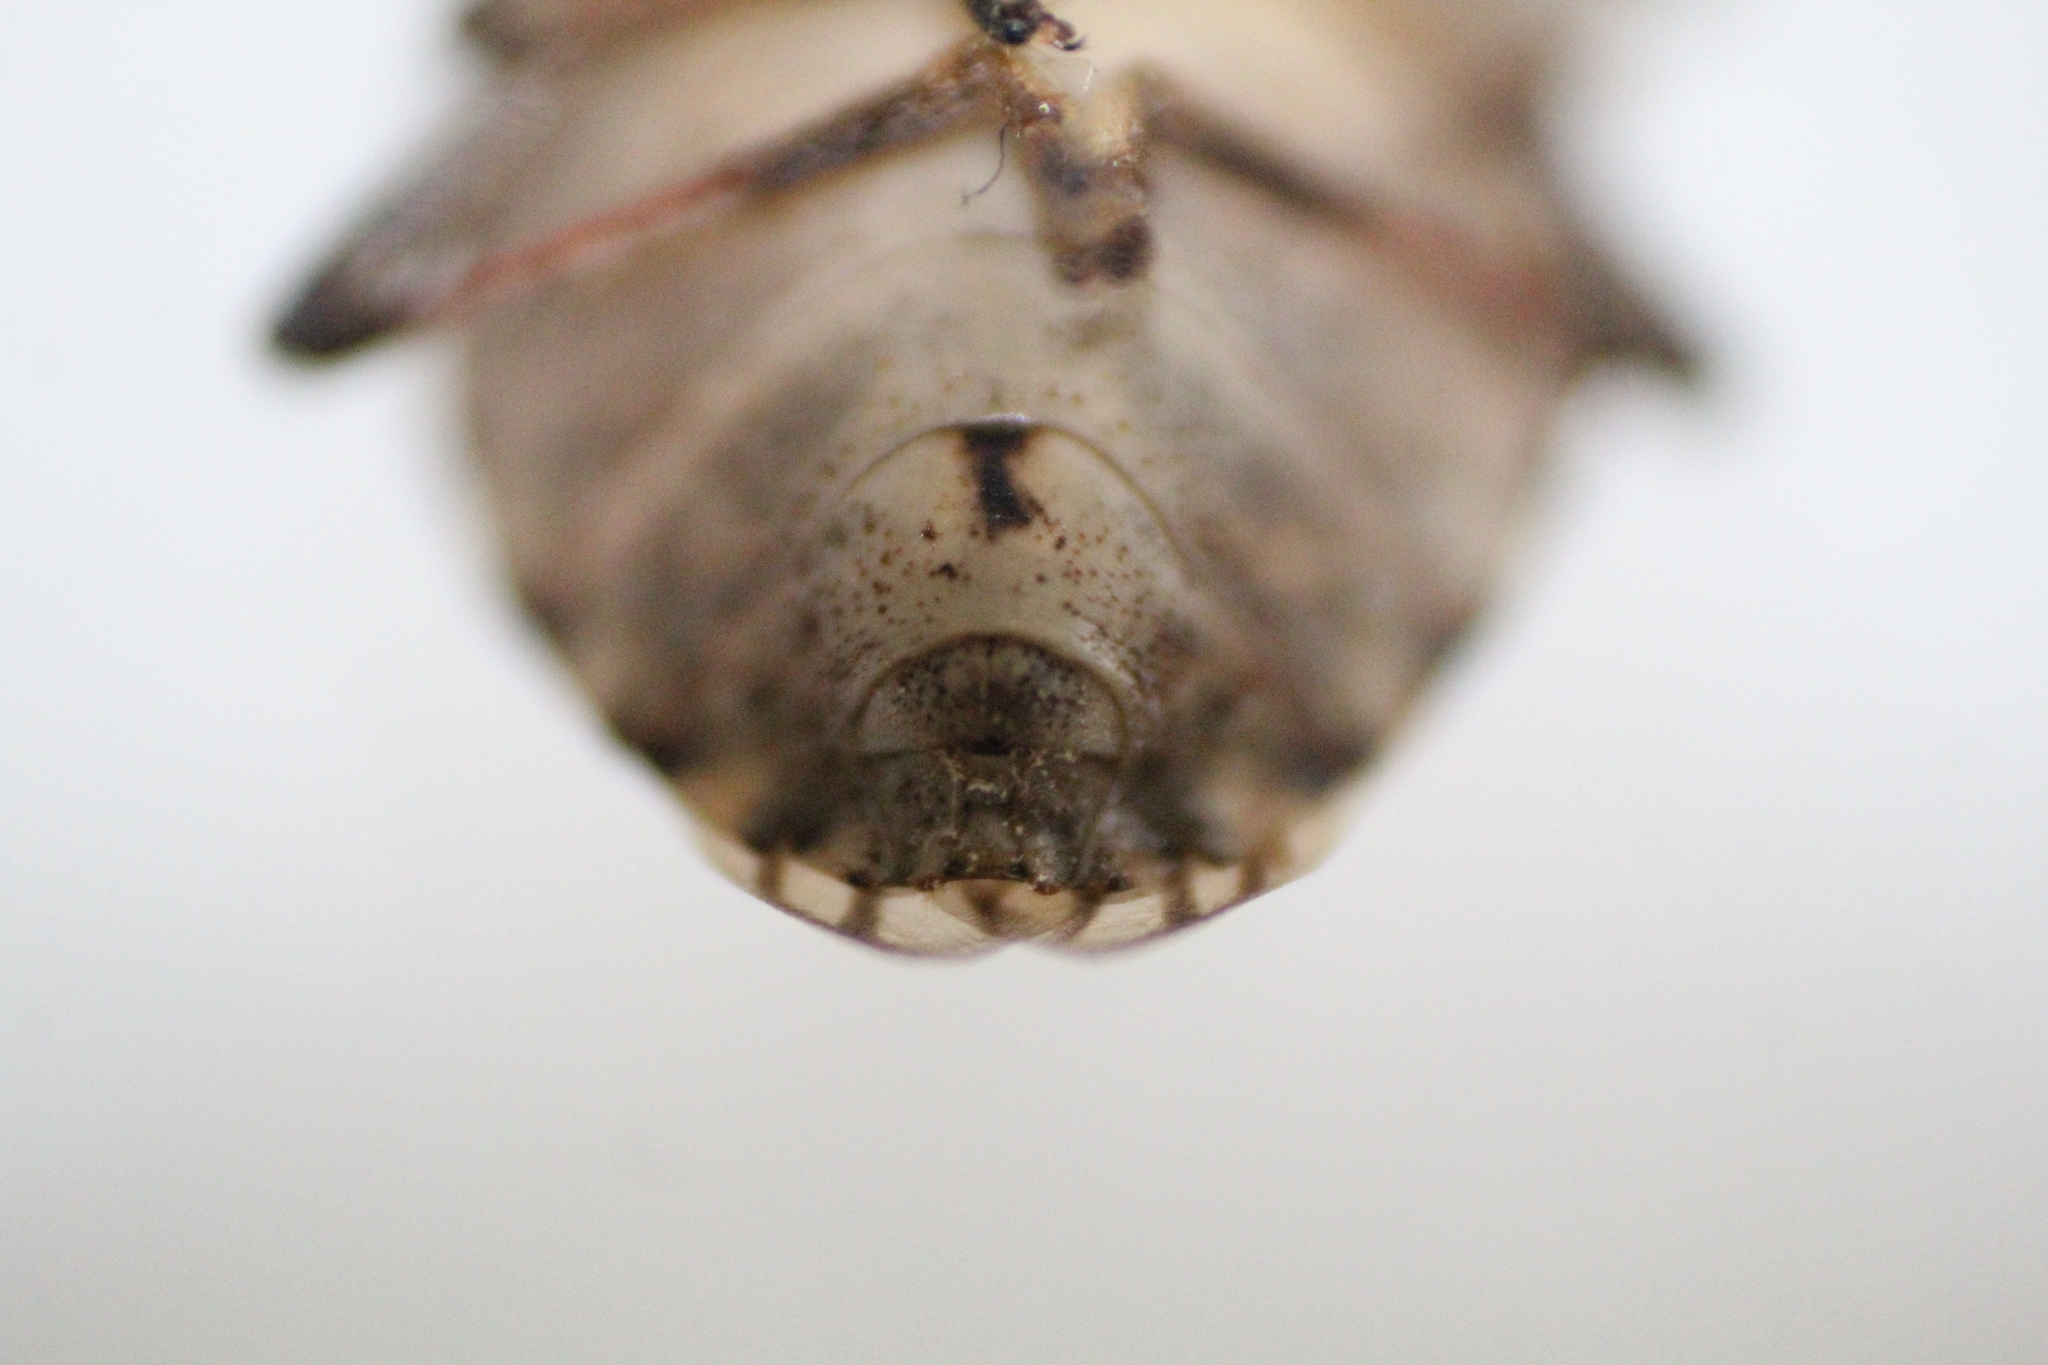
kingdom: Animalia
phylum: Arthropoda
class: Insecta
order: Hemiptera
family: Pentatomidae
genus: Halyomorpha
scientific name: Halyomorpha halys
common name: Brown marmorated stink bug
